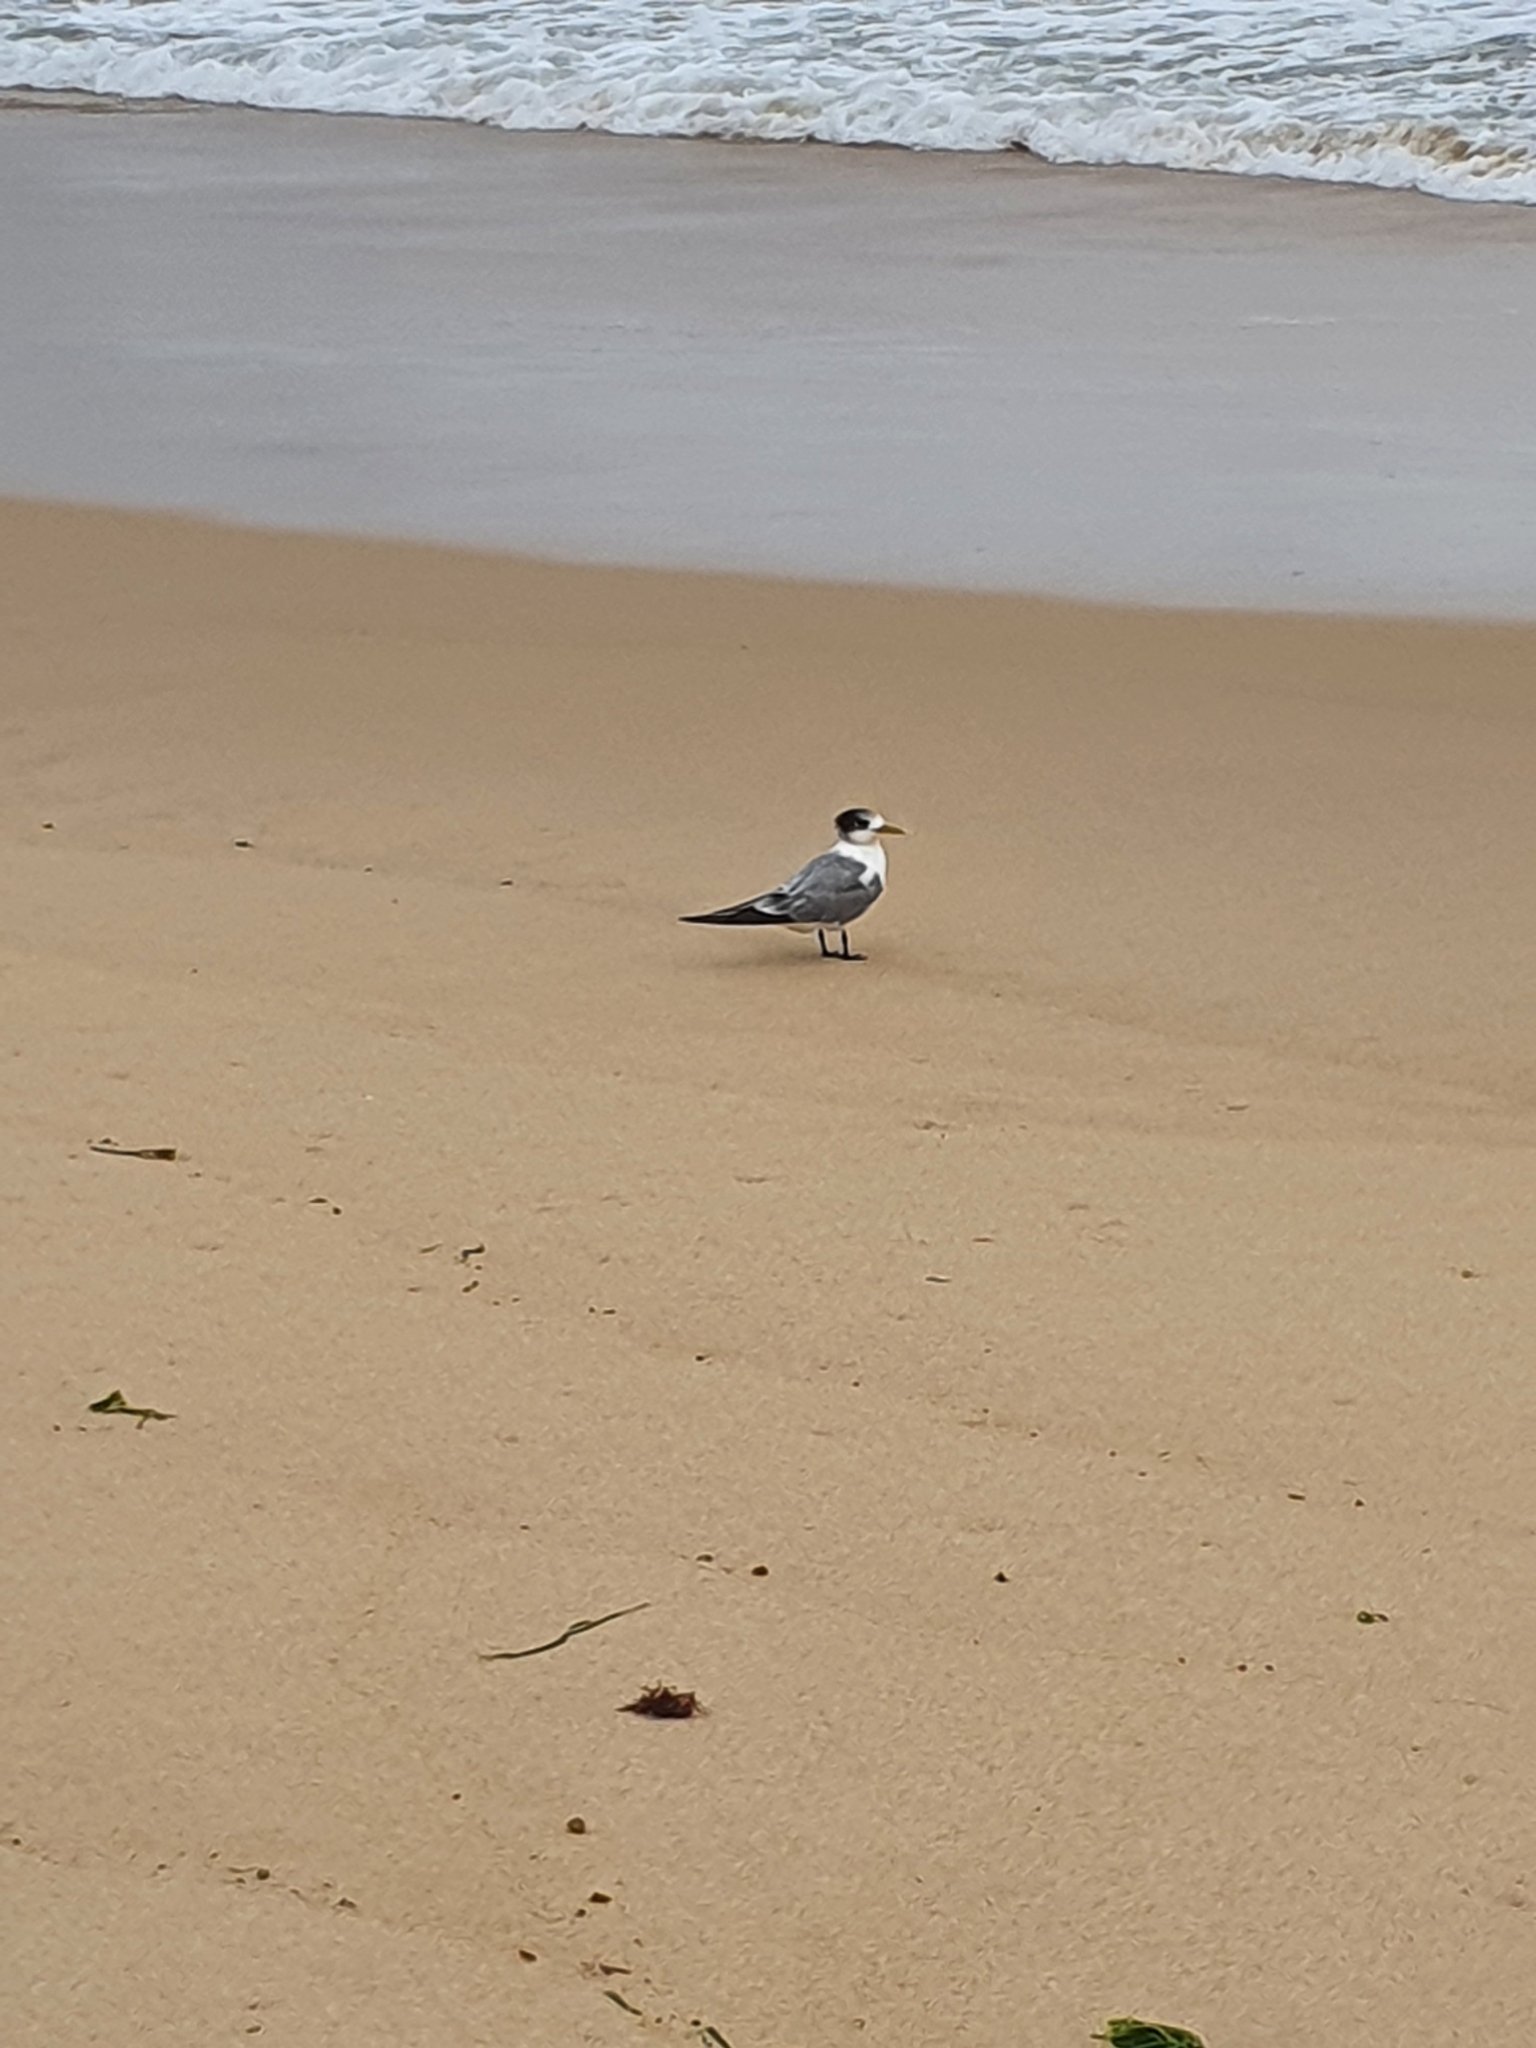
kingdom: Animalia
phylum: Chordata
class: Aves
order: Charadriiformes
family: Laridae
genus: Thalasseus
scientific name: Thalasseus bergii
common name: Greater crested tern
